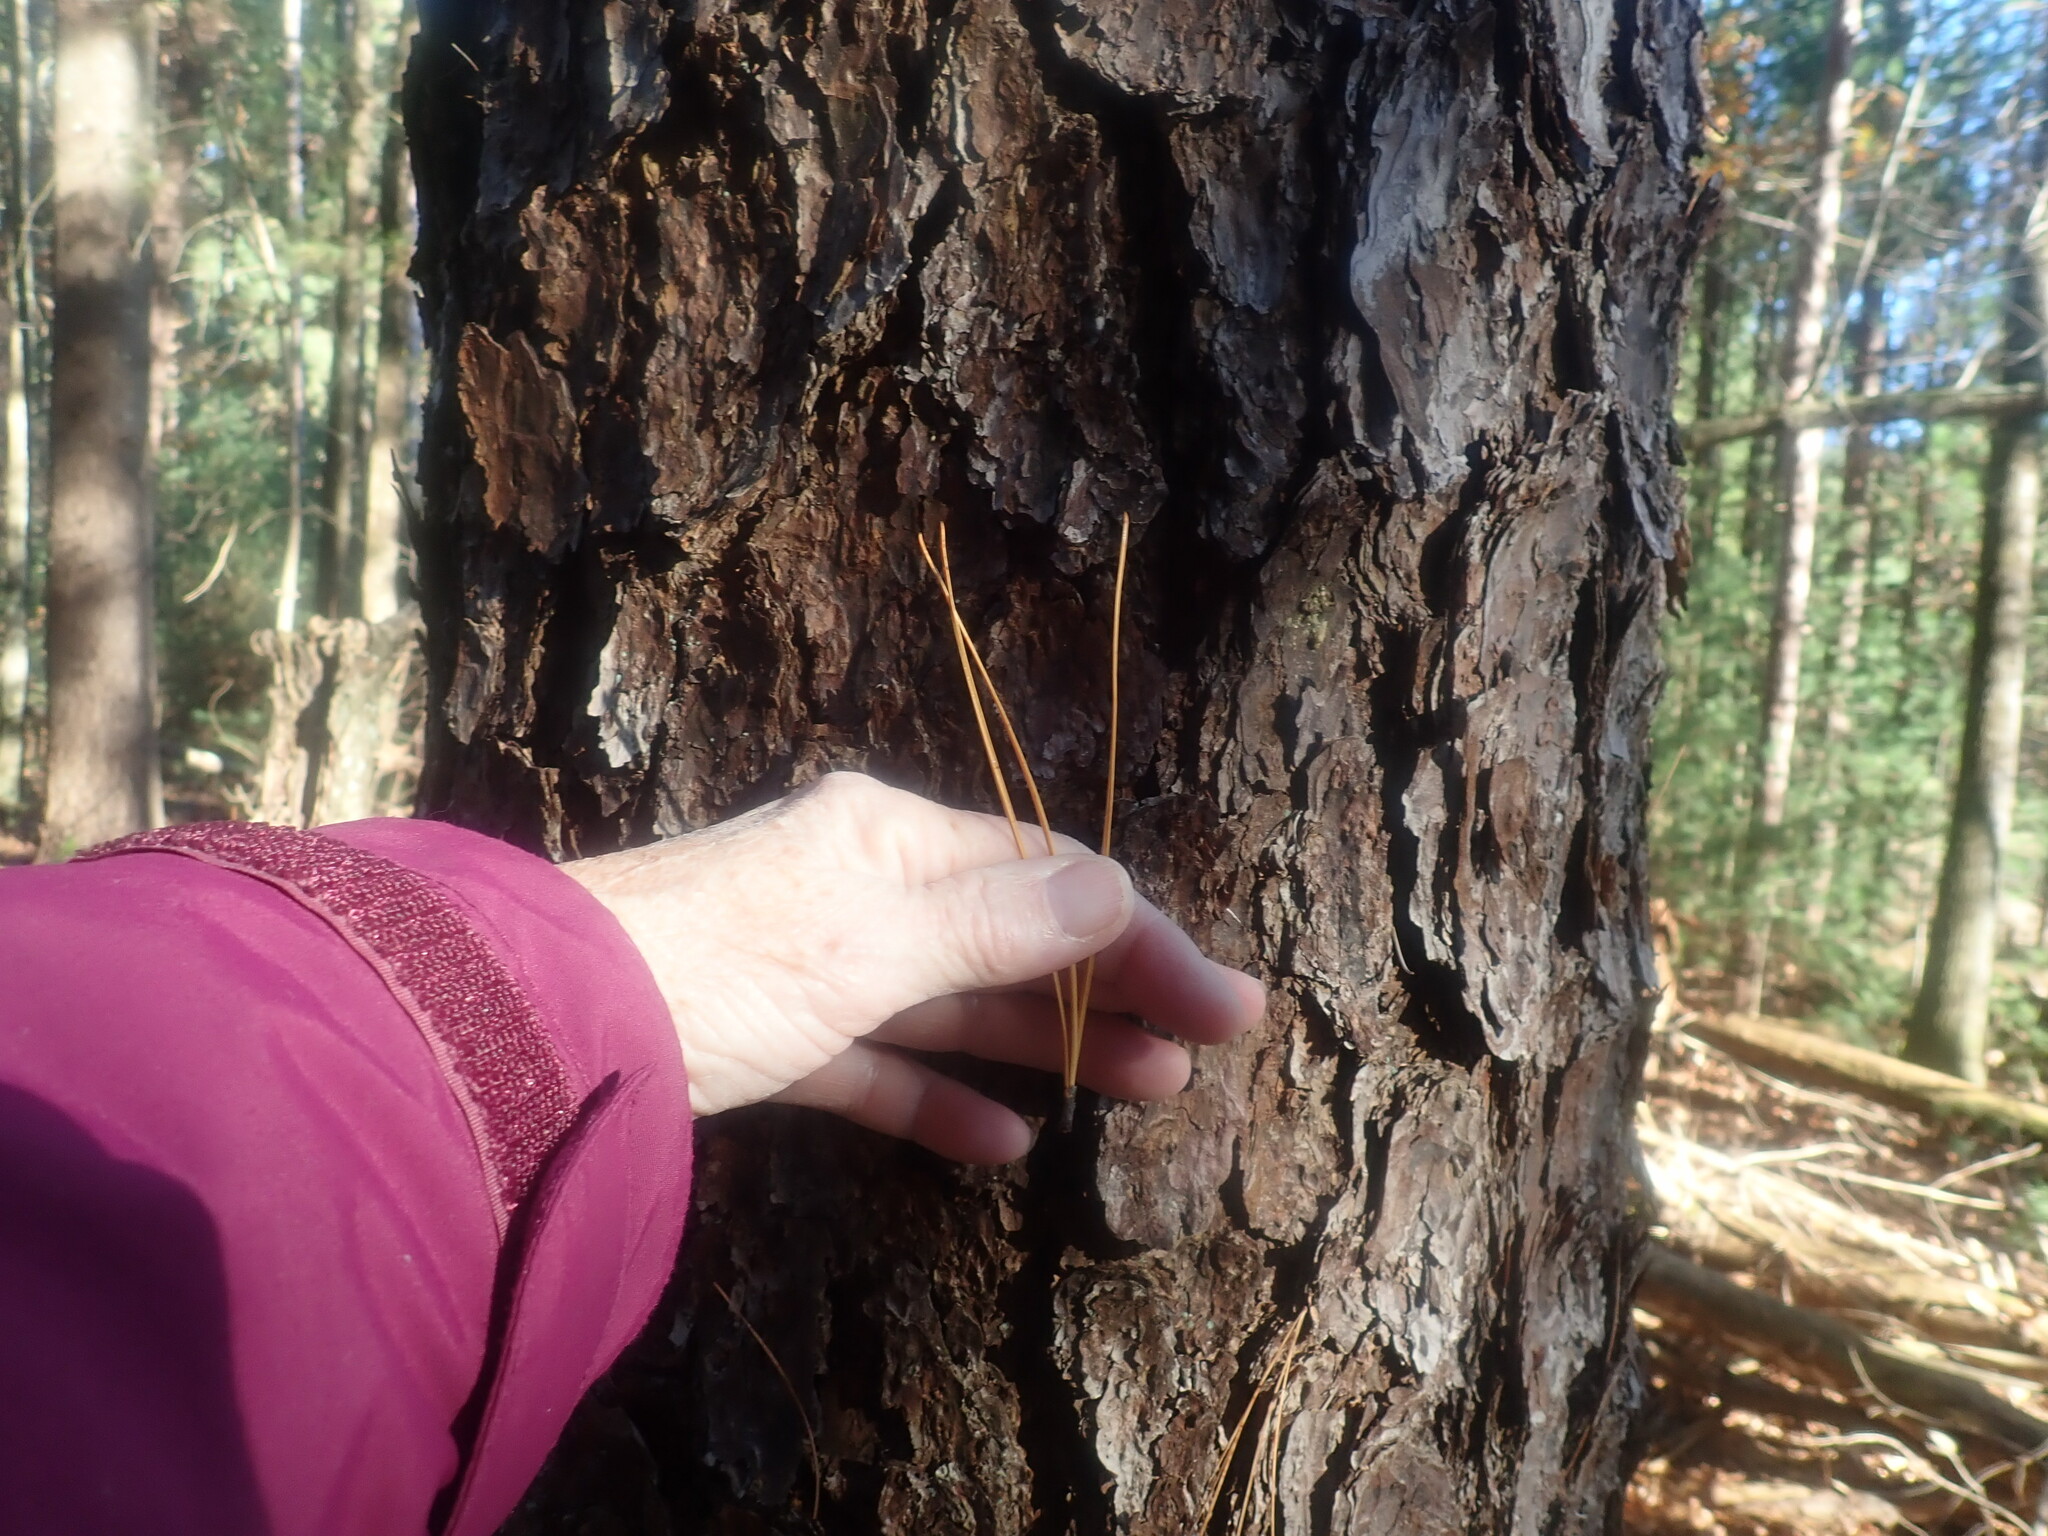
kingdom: Plantae
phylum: Tracheophyta
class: Pinopsida
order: Pinales
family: Pinaceae
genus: Pinus
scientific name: Pinus rigida
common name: Pitch pine
